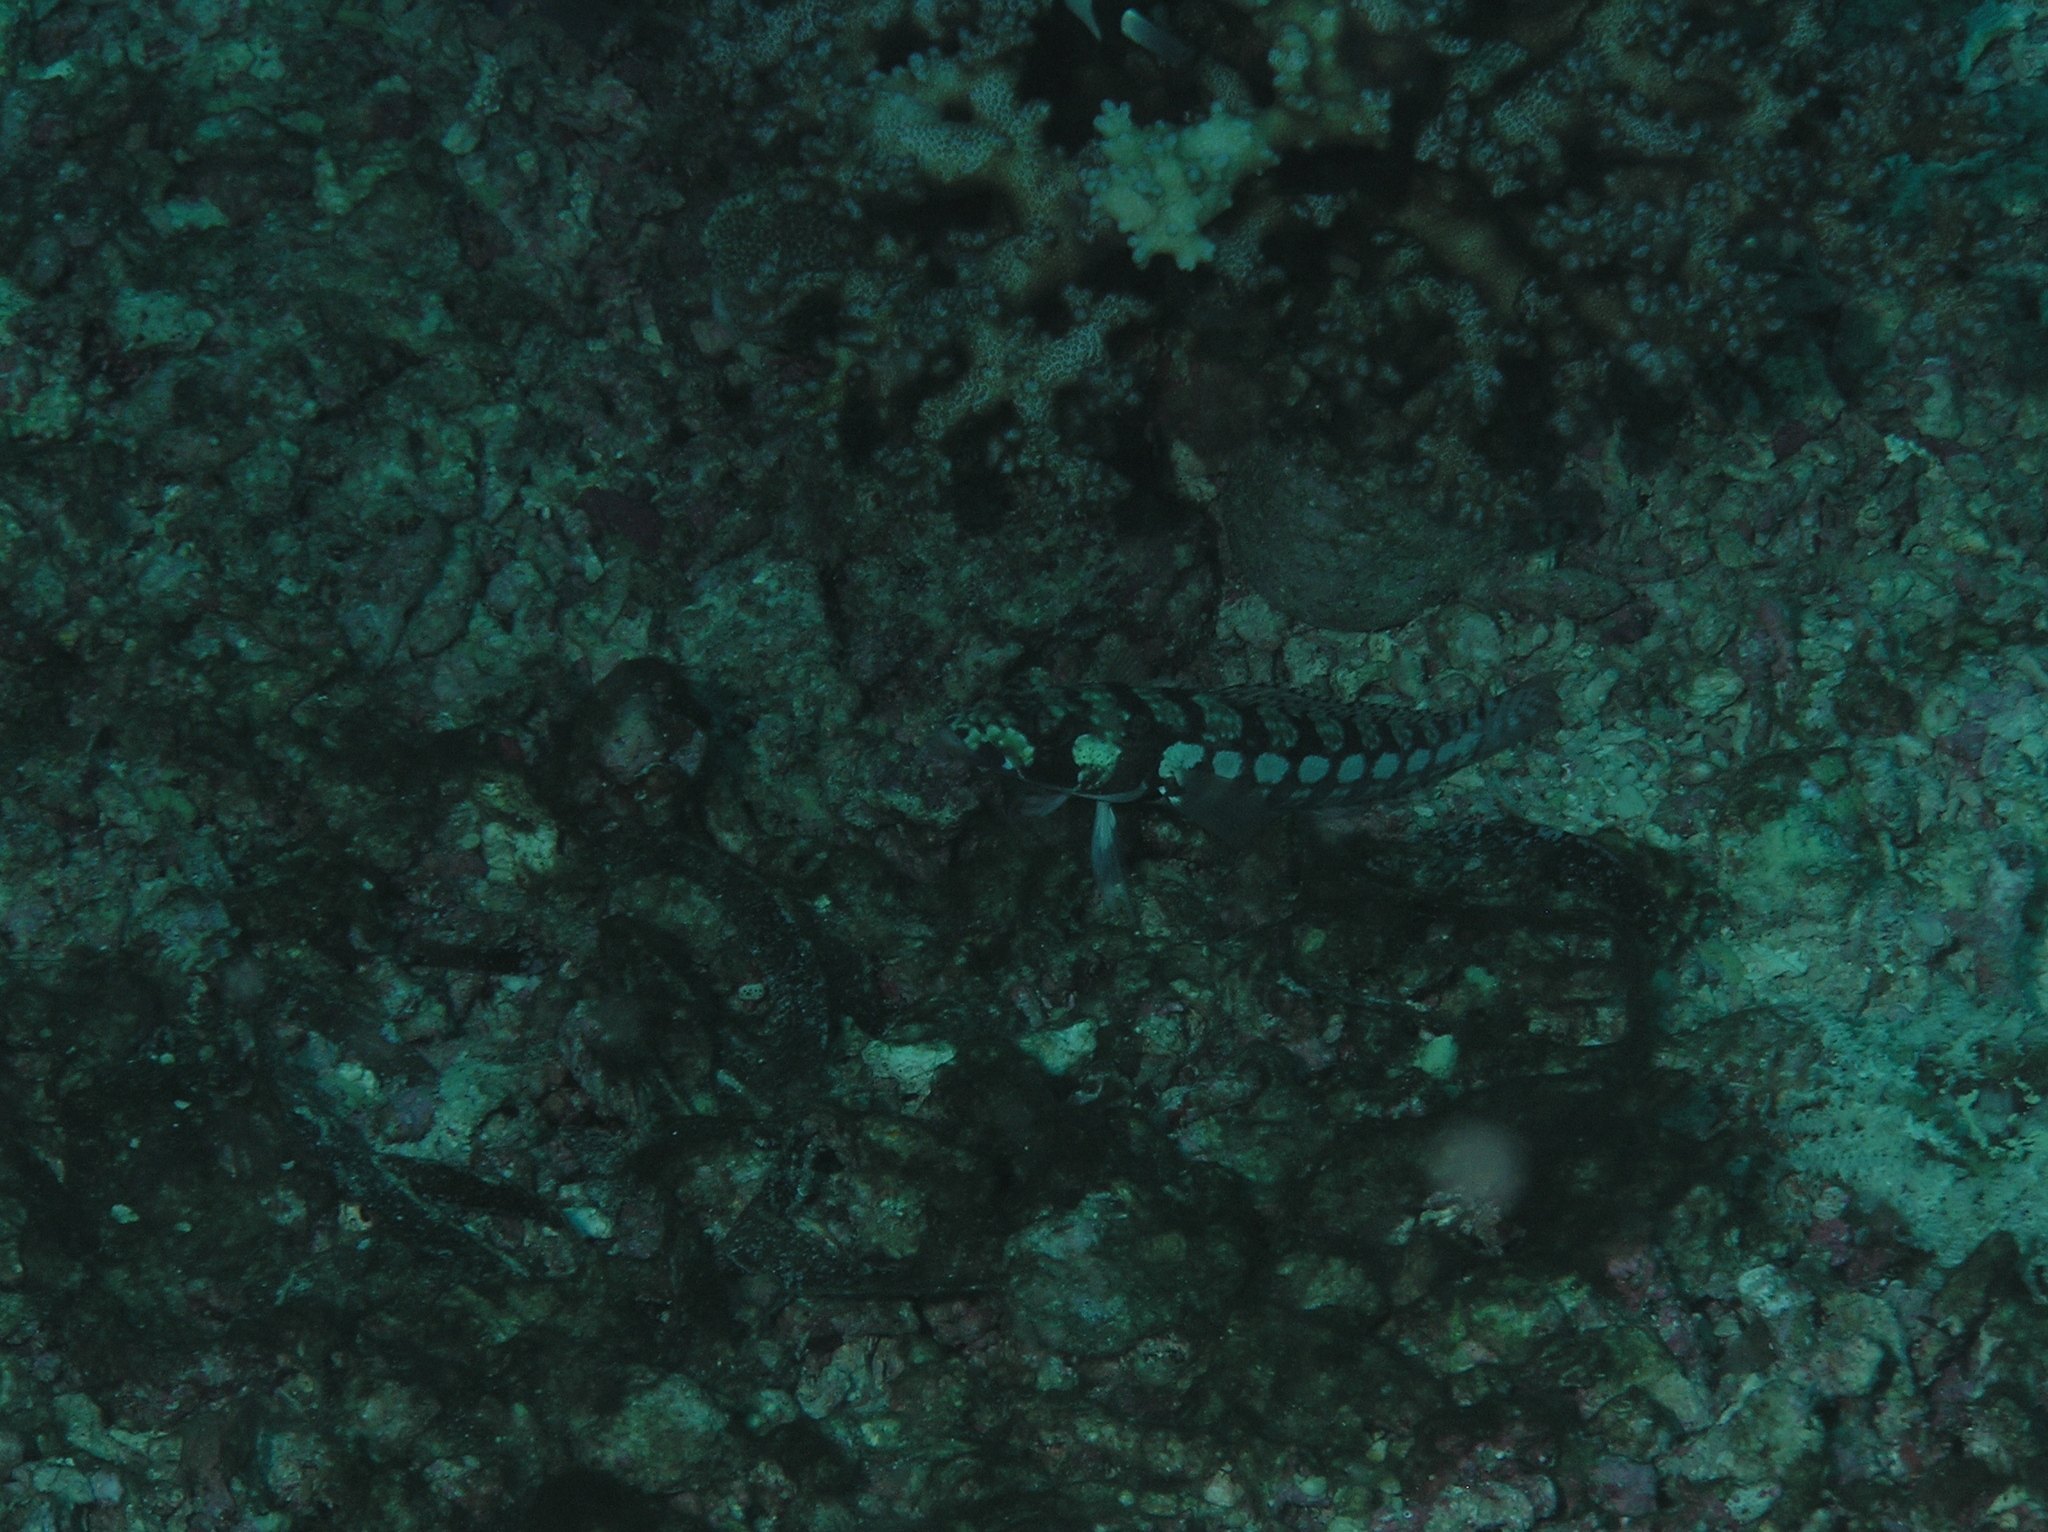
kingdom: Animalia
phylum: Chordata
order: Perciformes
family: Pinguipedidae
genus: Parapercis
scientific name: Parapercis tetracantha
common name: Black-banded grubfish
